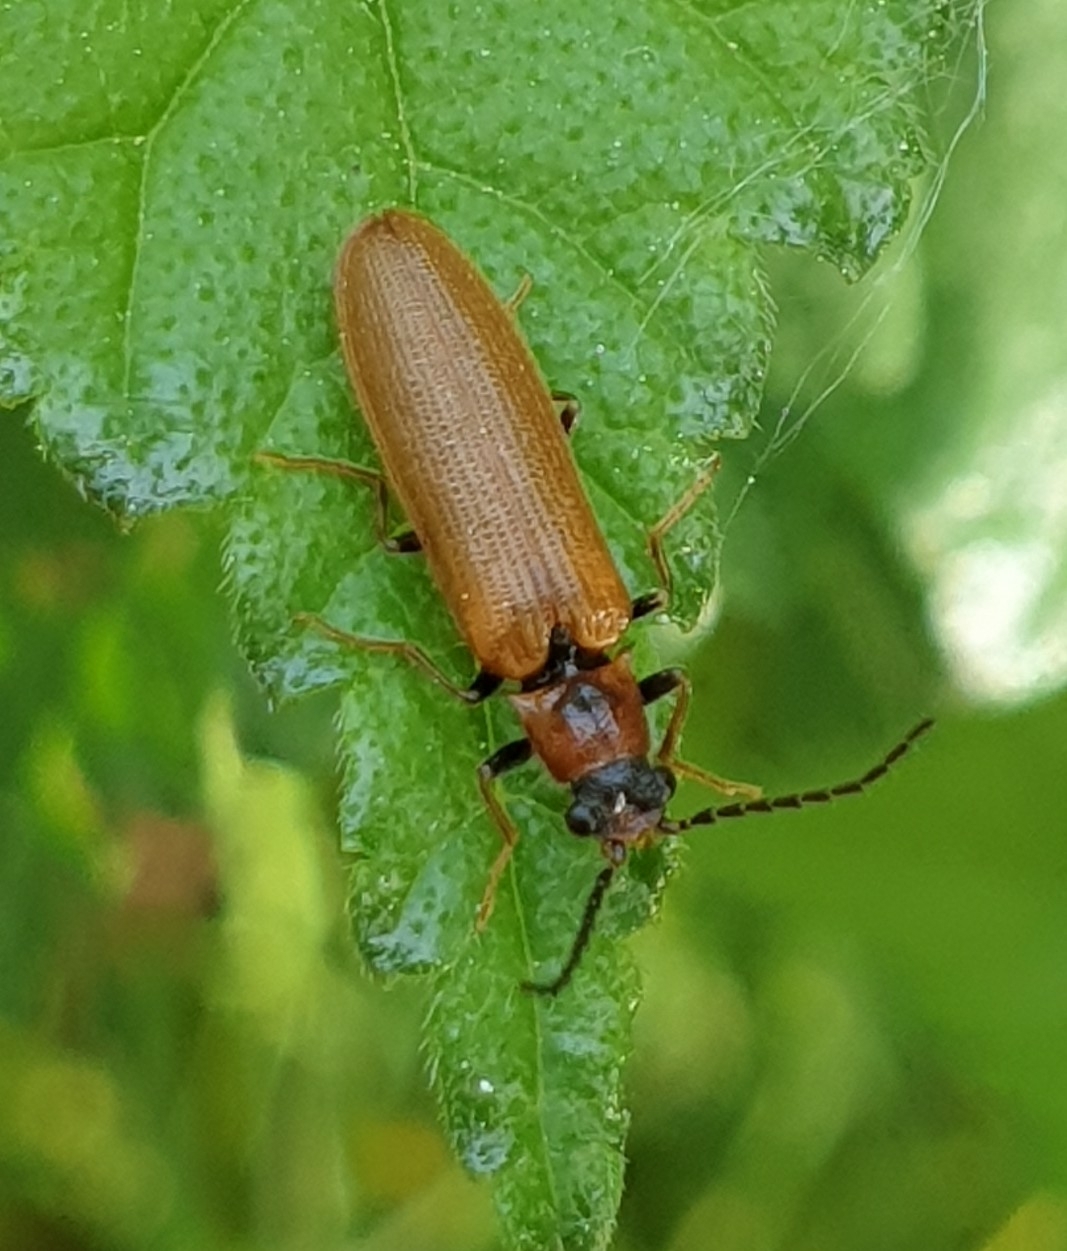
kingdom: Animalia
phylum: Arthropoda
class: Insecta
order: Coleoptera
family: Elateridae
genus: Denticollis
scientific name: Denticollis linearis
